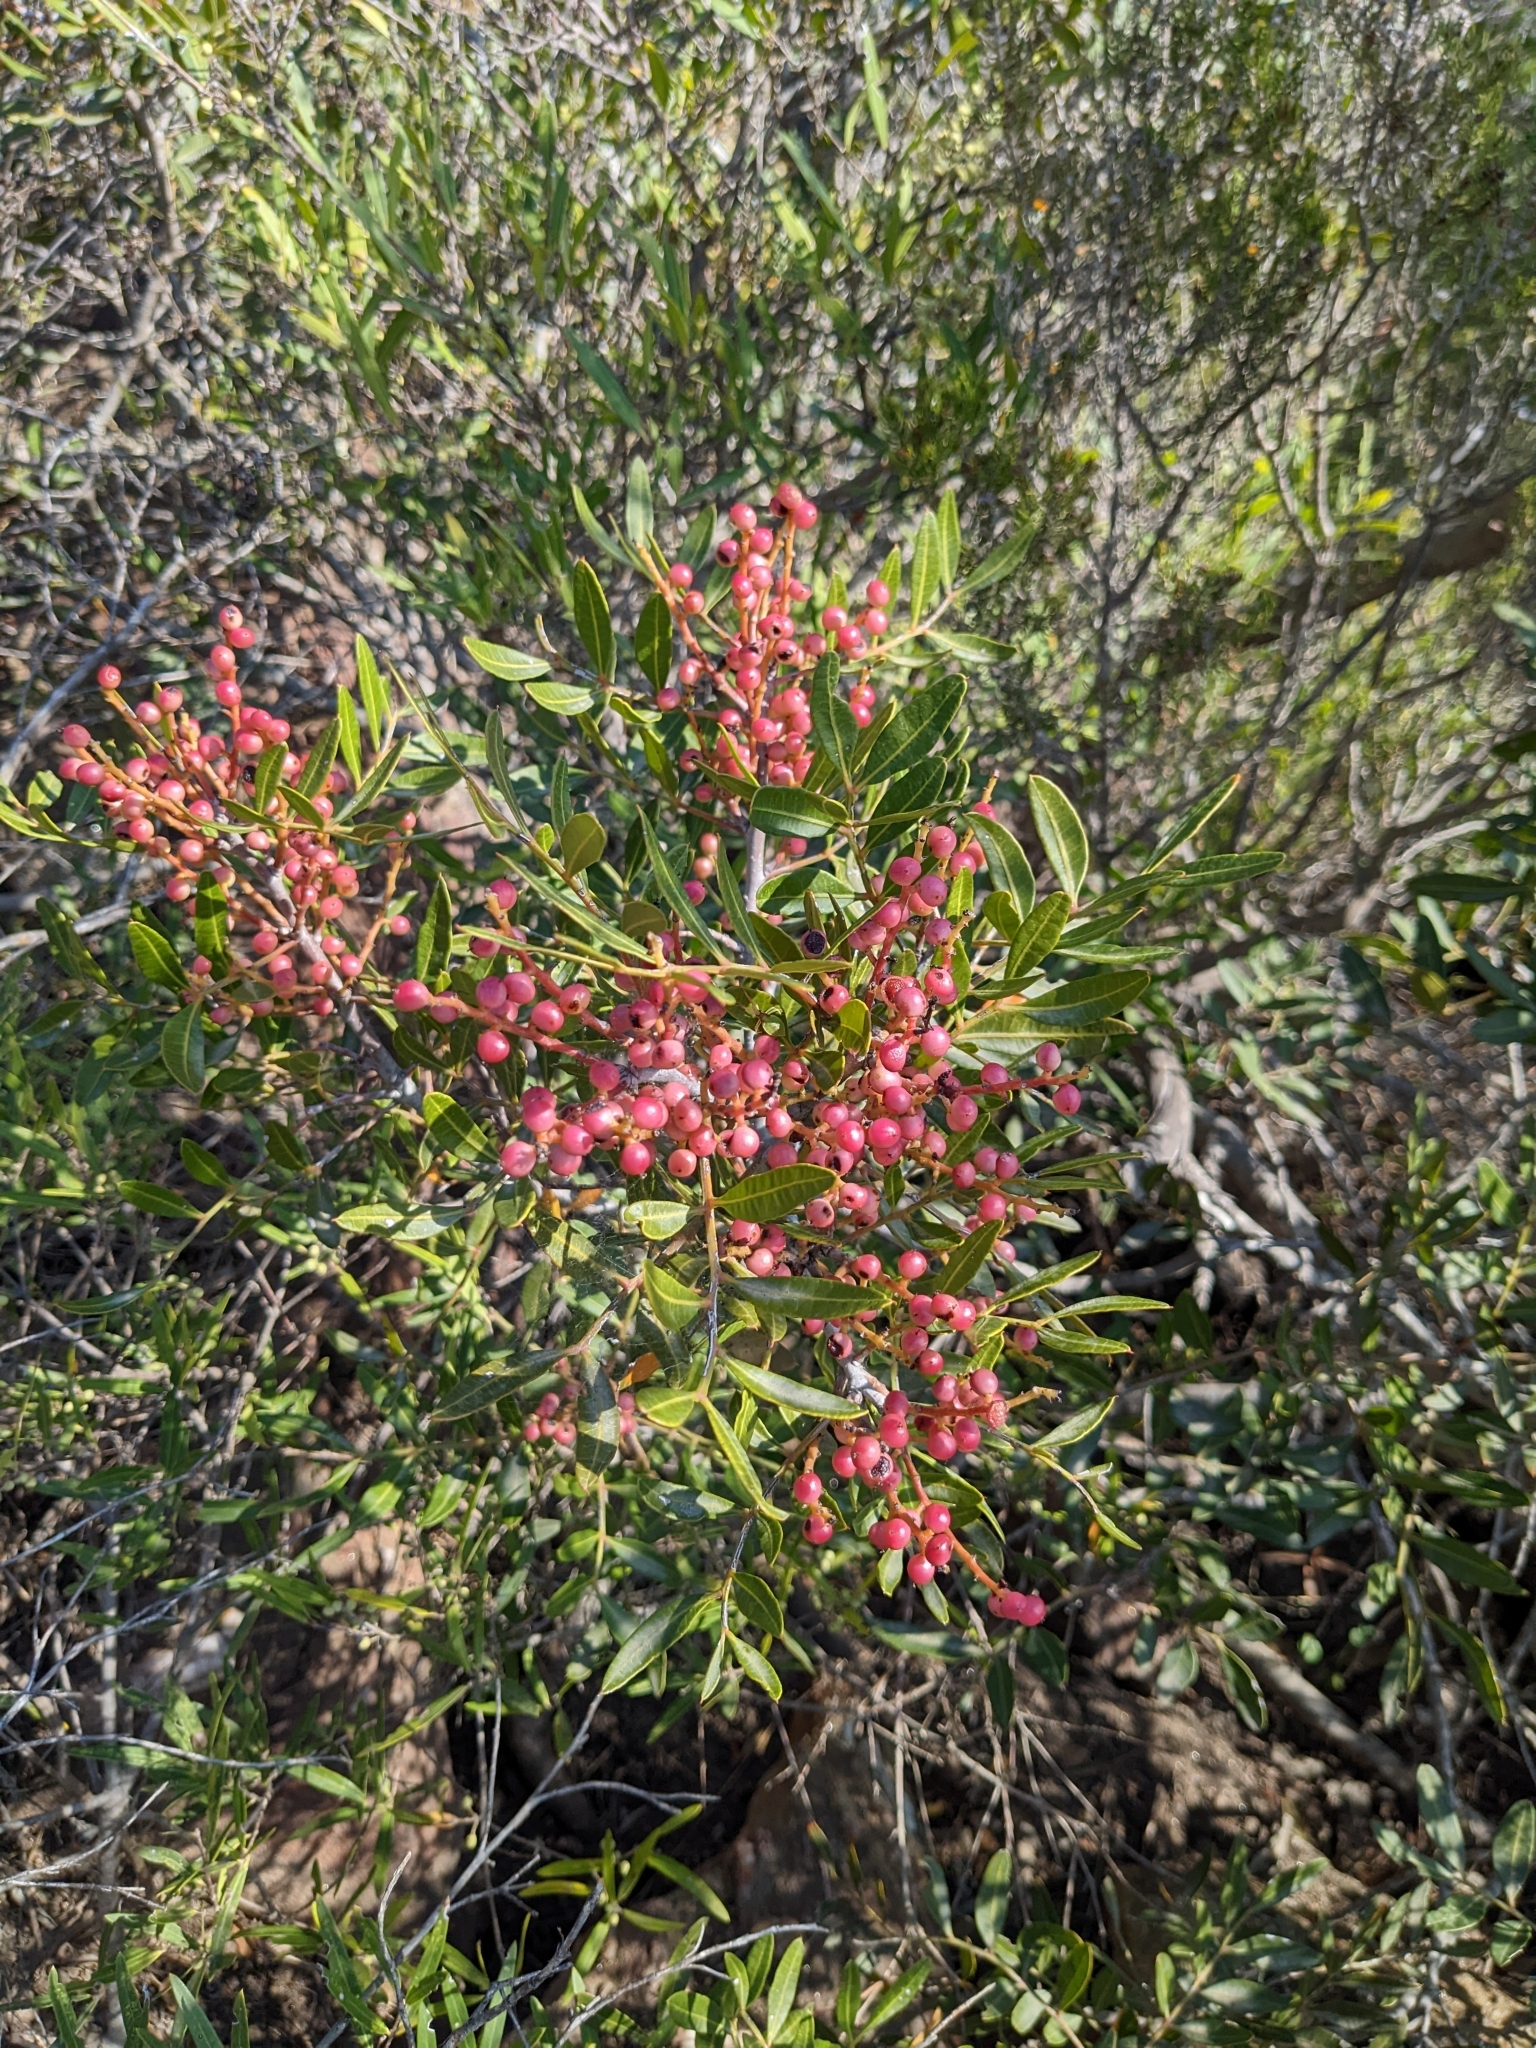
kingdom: Plantae
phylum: Tracheophyta
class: Magnoliopsida
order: Sapindales
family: Anacardiaceae
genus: Pistacia
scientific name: Pistacia lentiscus
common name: Lentisk
